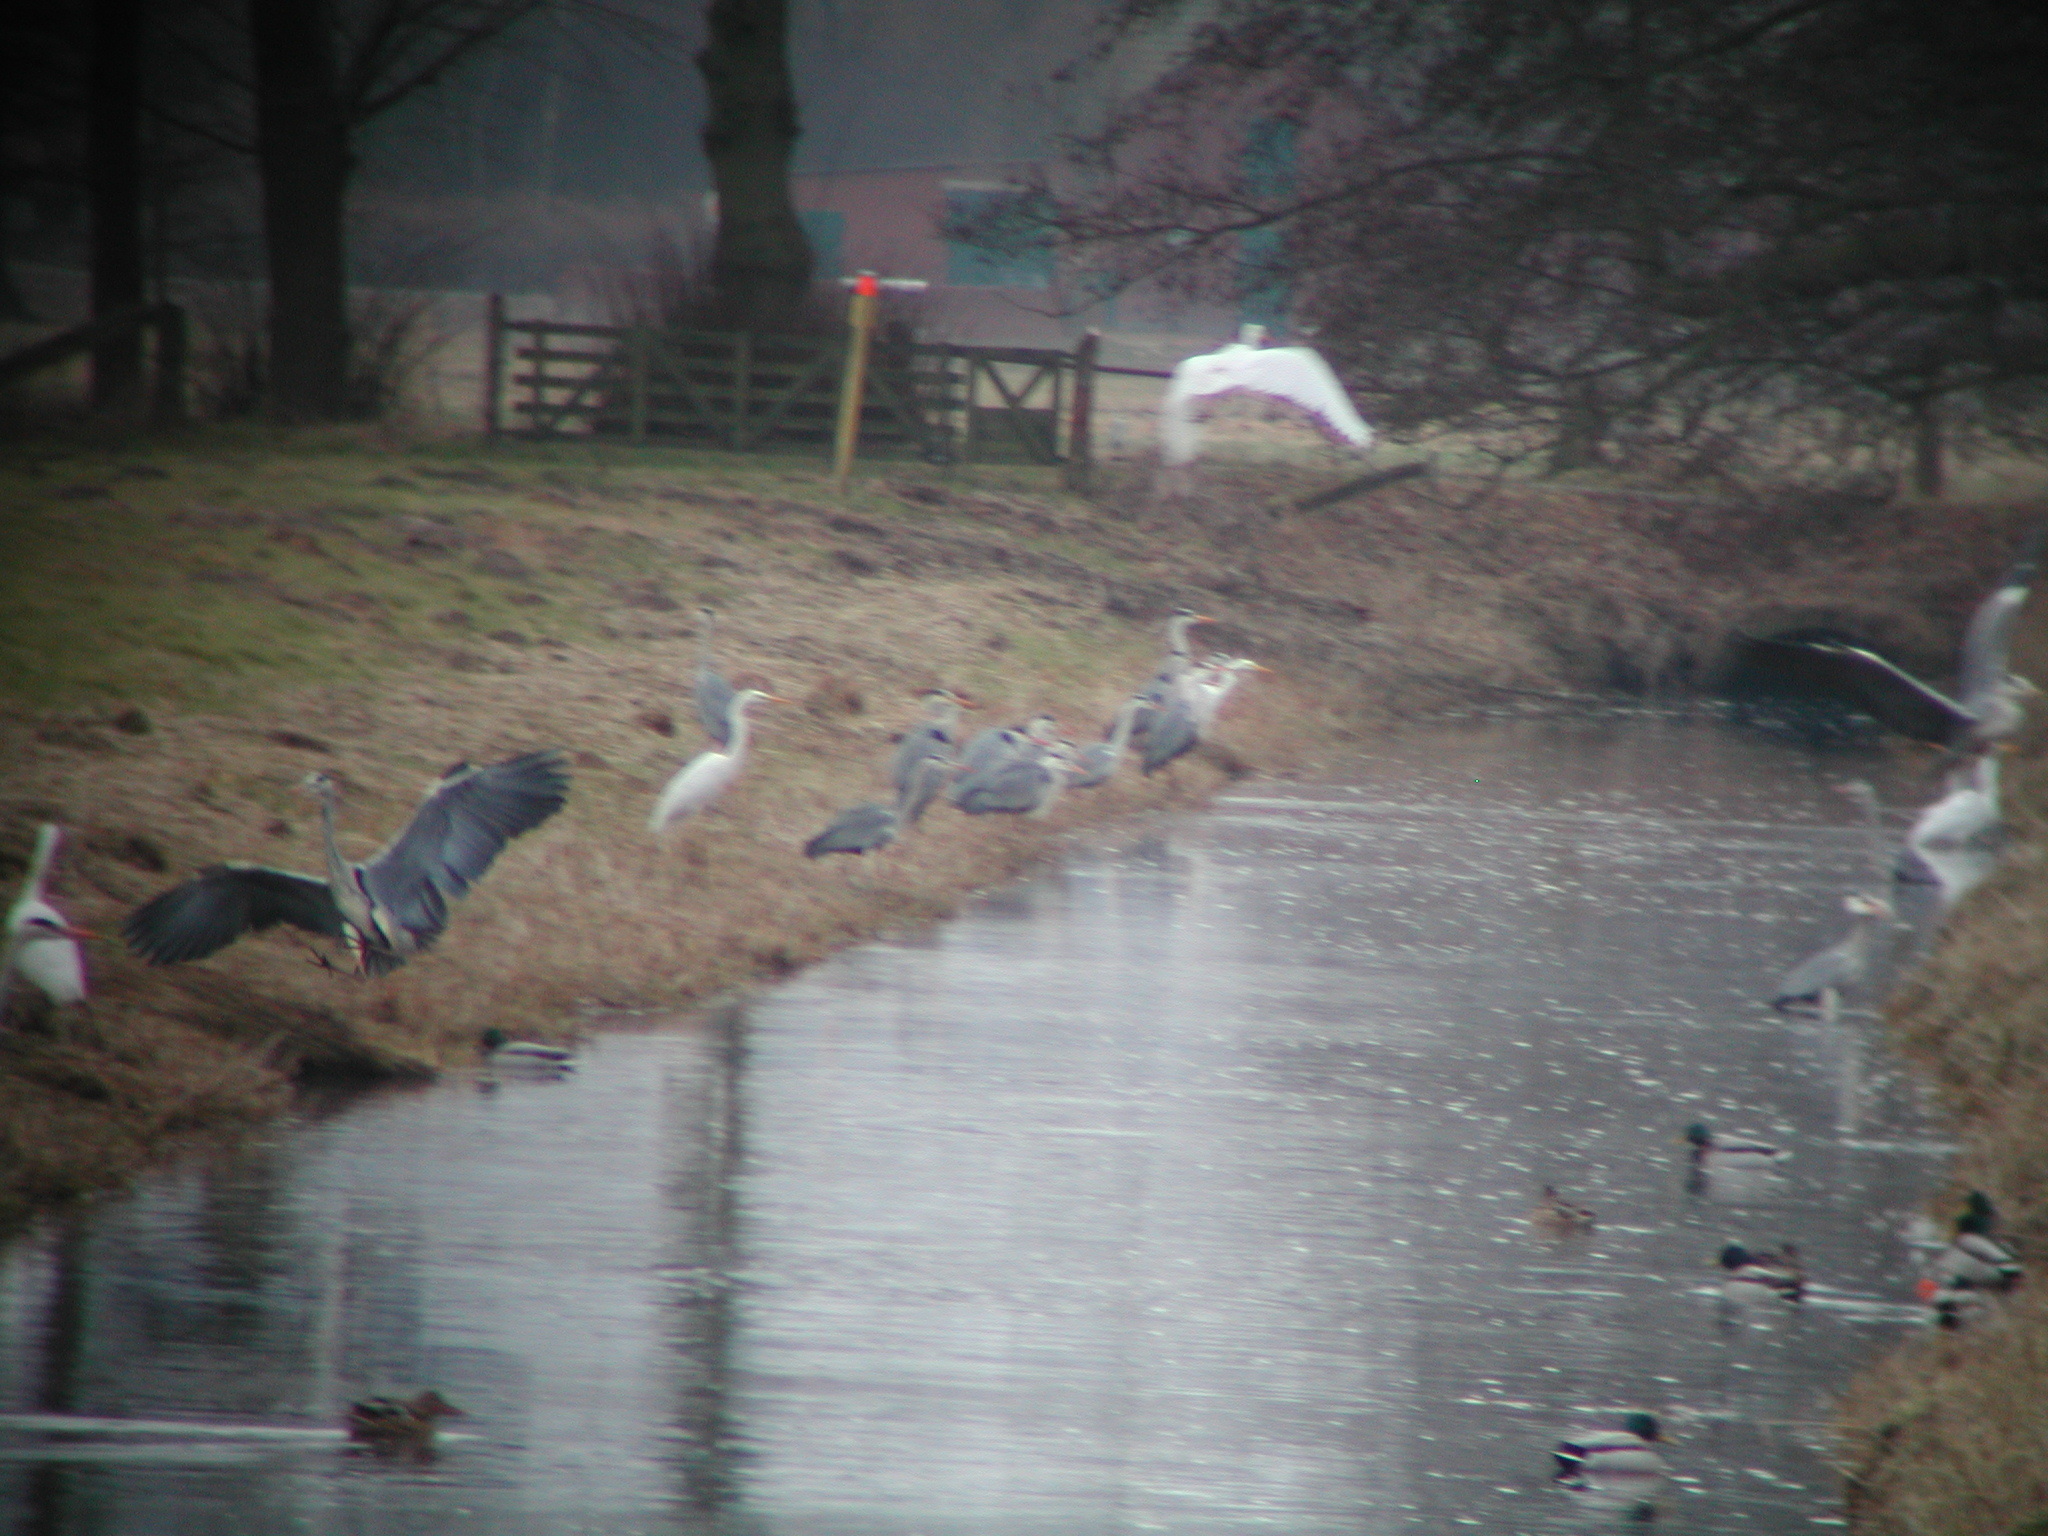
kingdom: Animalia
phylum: Chordata
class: Aves
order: Pelecaniformes
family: Ardeidae
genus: Ardea
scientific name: Ardea cinerea
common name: Grey heron
